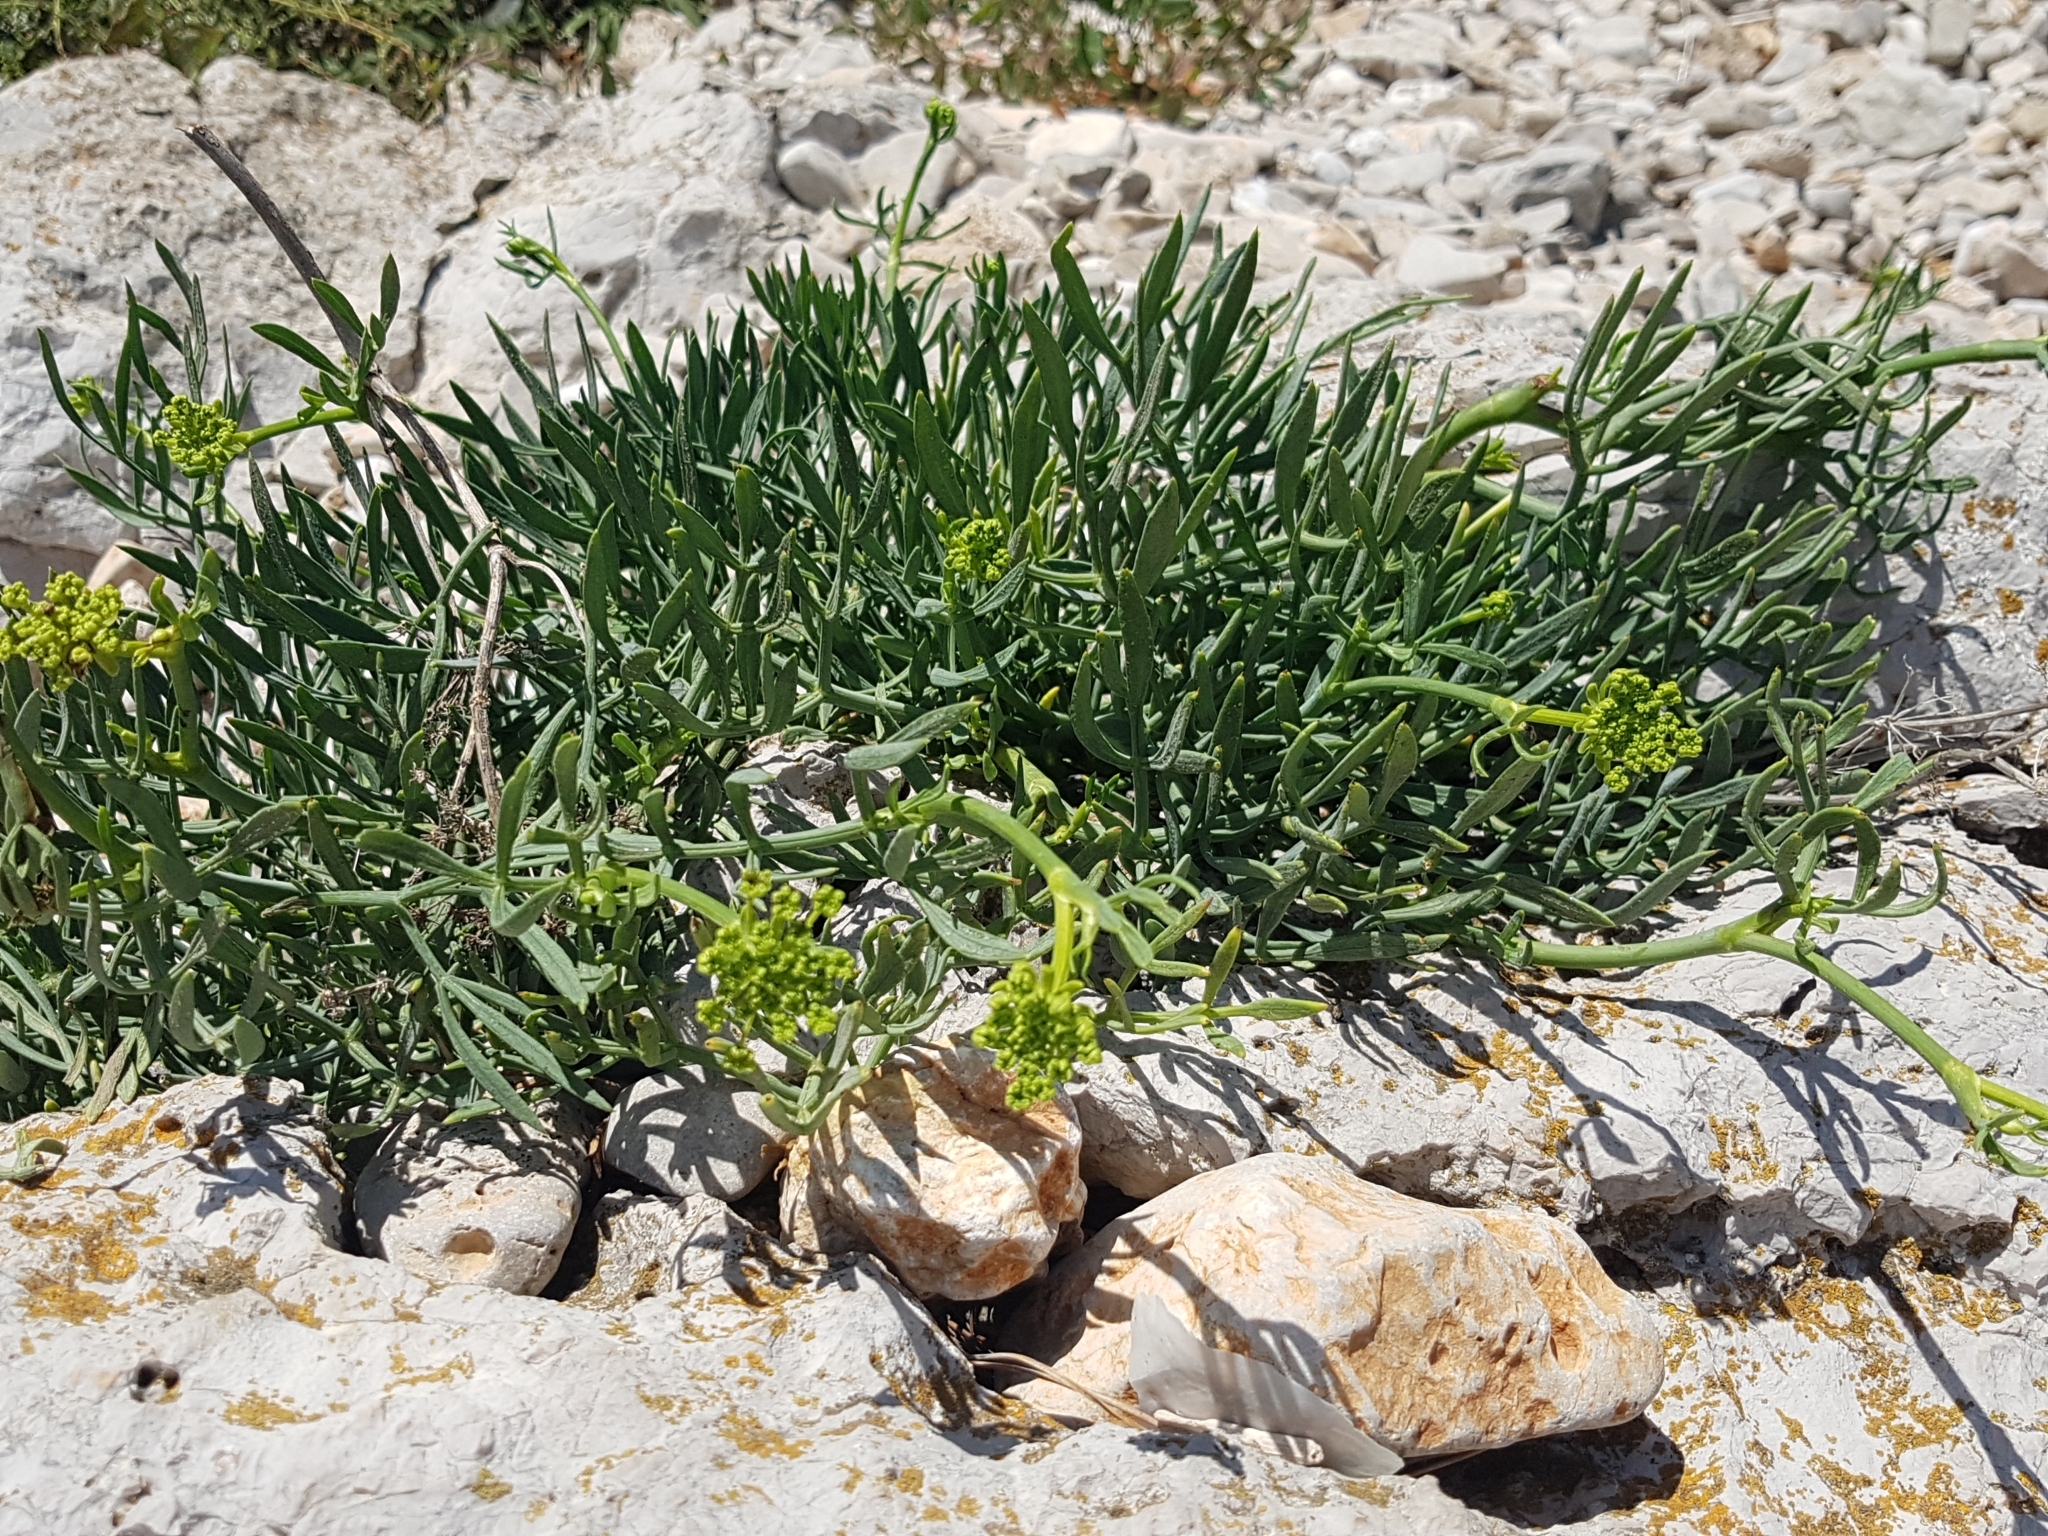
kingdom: Plantae
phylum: Tracheophyta
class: Magnoliopsida
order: Apiales
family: Apiaceae
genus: Crithmum
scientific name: Crithmum maritimum
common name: Rock samphire
